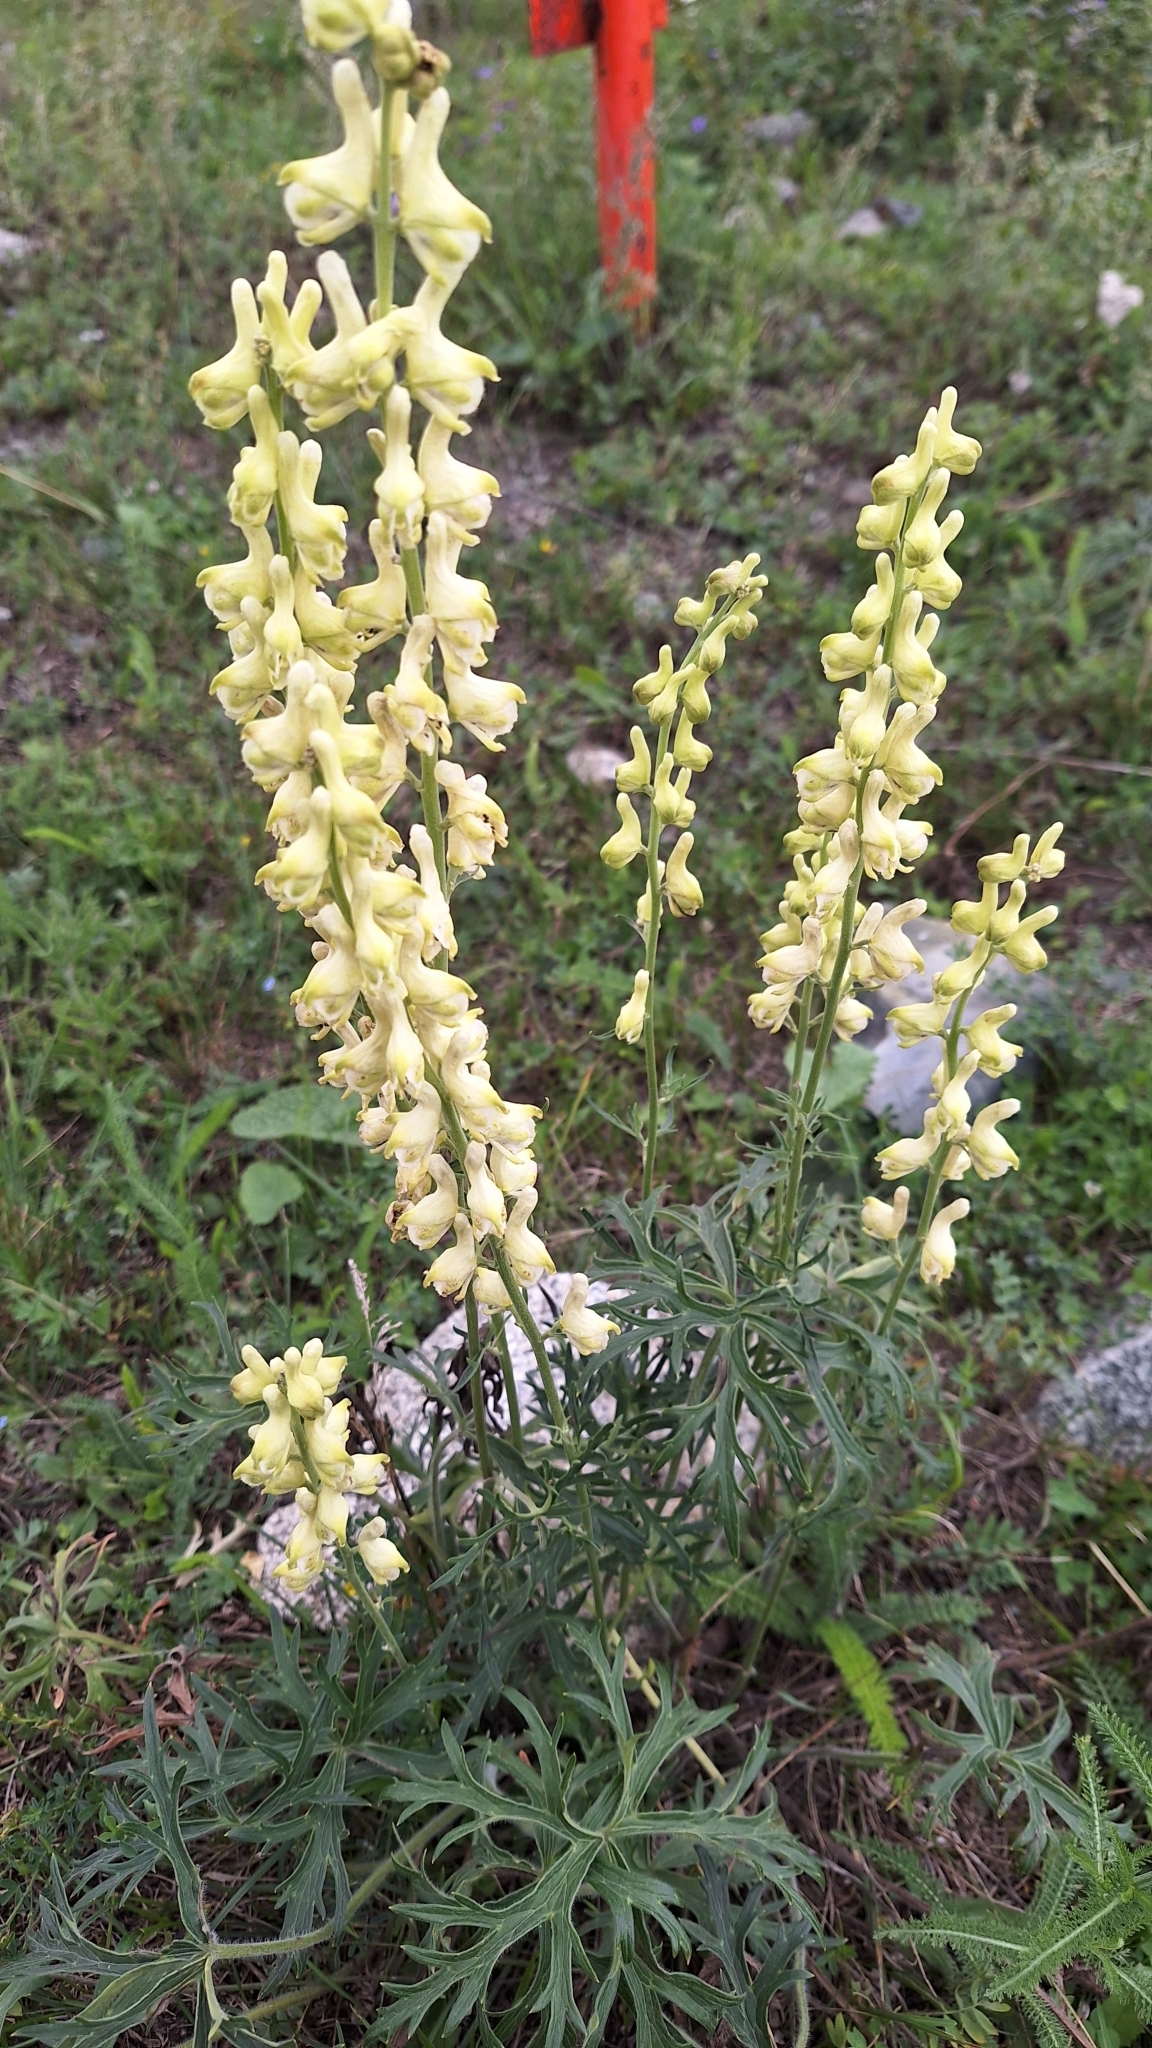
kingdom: Plantae
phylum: Tracheophyta
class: Magnoliopsida
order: Ranunculales
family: Ranunculaceae
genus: Aconitum
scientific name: Aconitum barbatum
